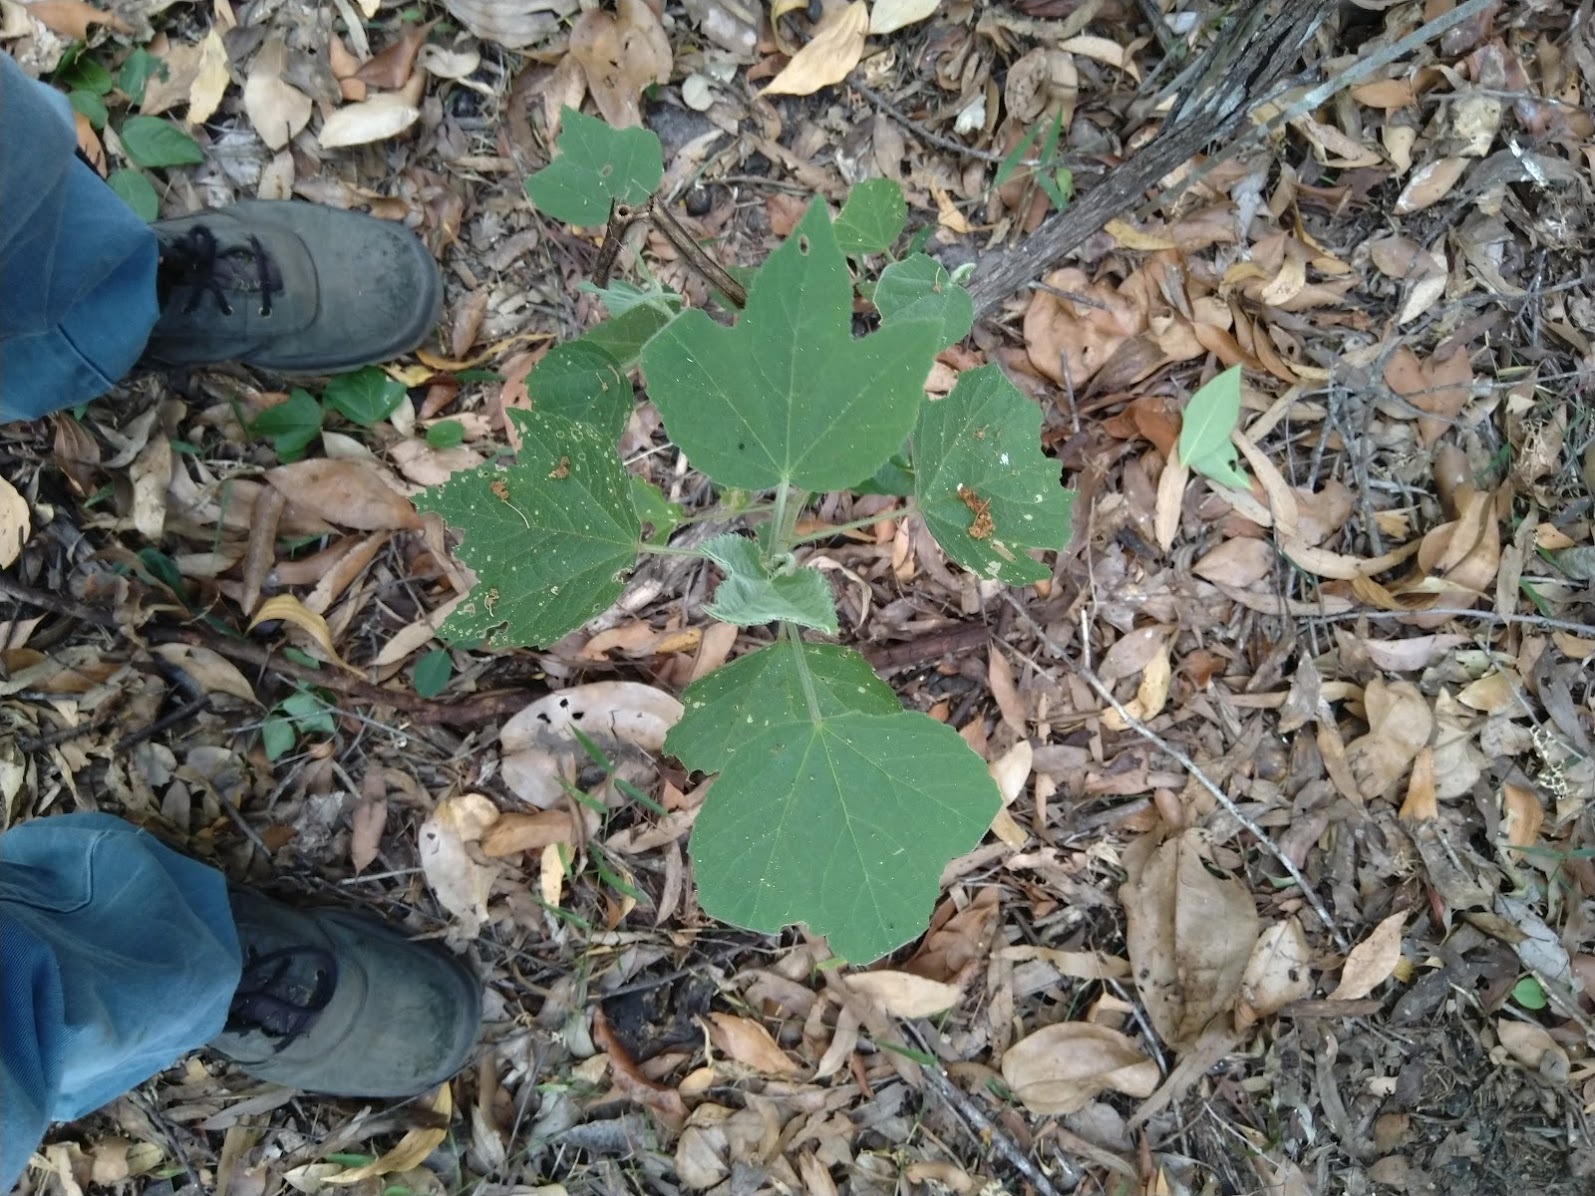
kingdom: Plantae
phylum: Tracheophyta
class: Magnoliopsida
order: Malvales
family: Malvaceae
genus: Hibiscus
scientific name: Hibiscus splendens
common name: Hollyhock-tree
